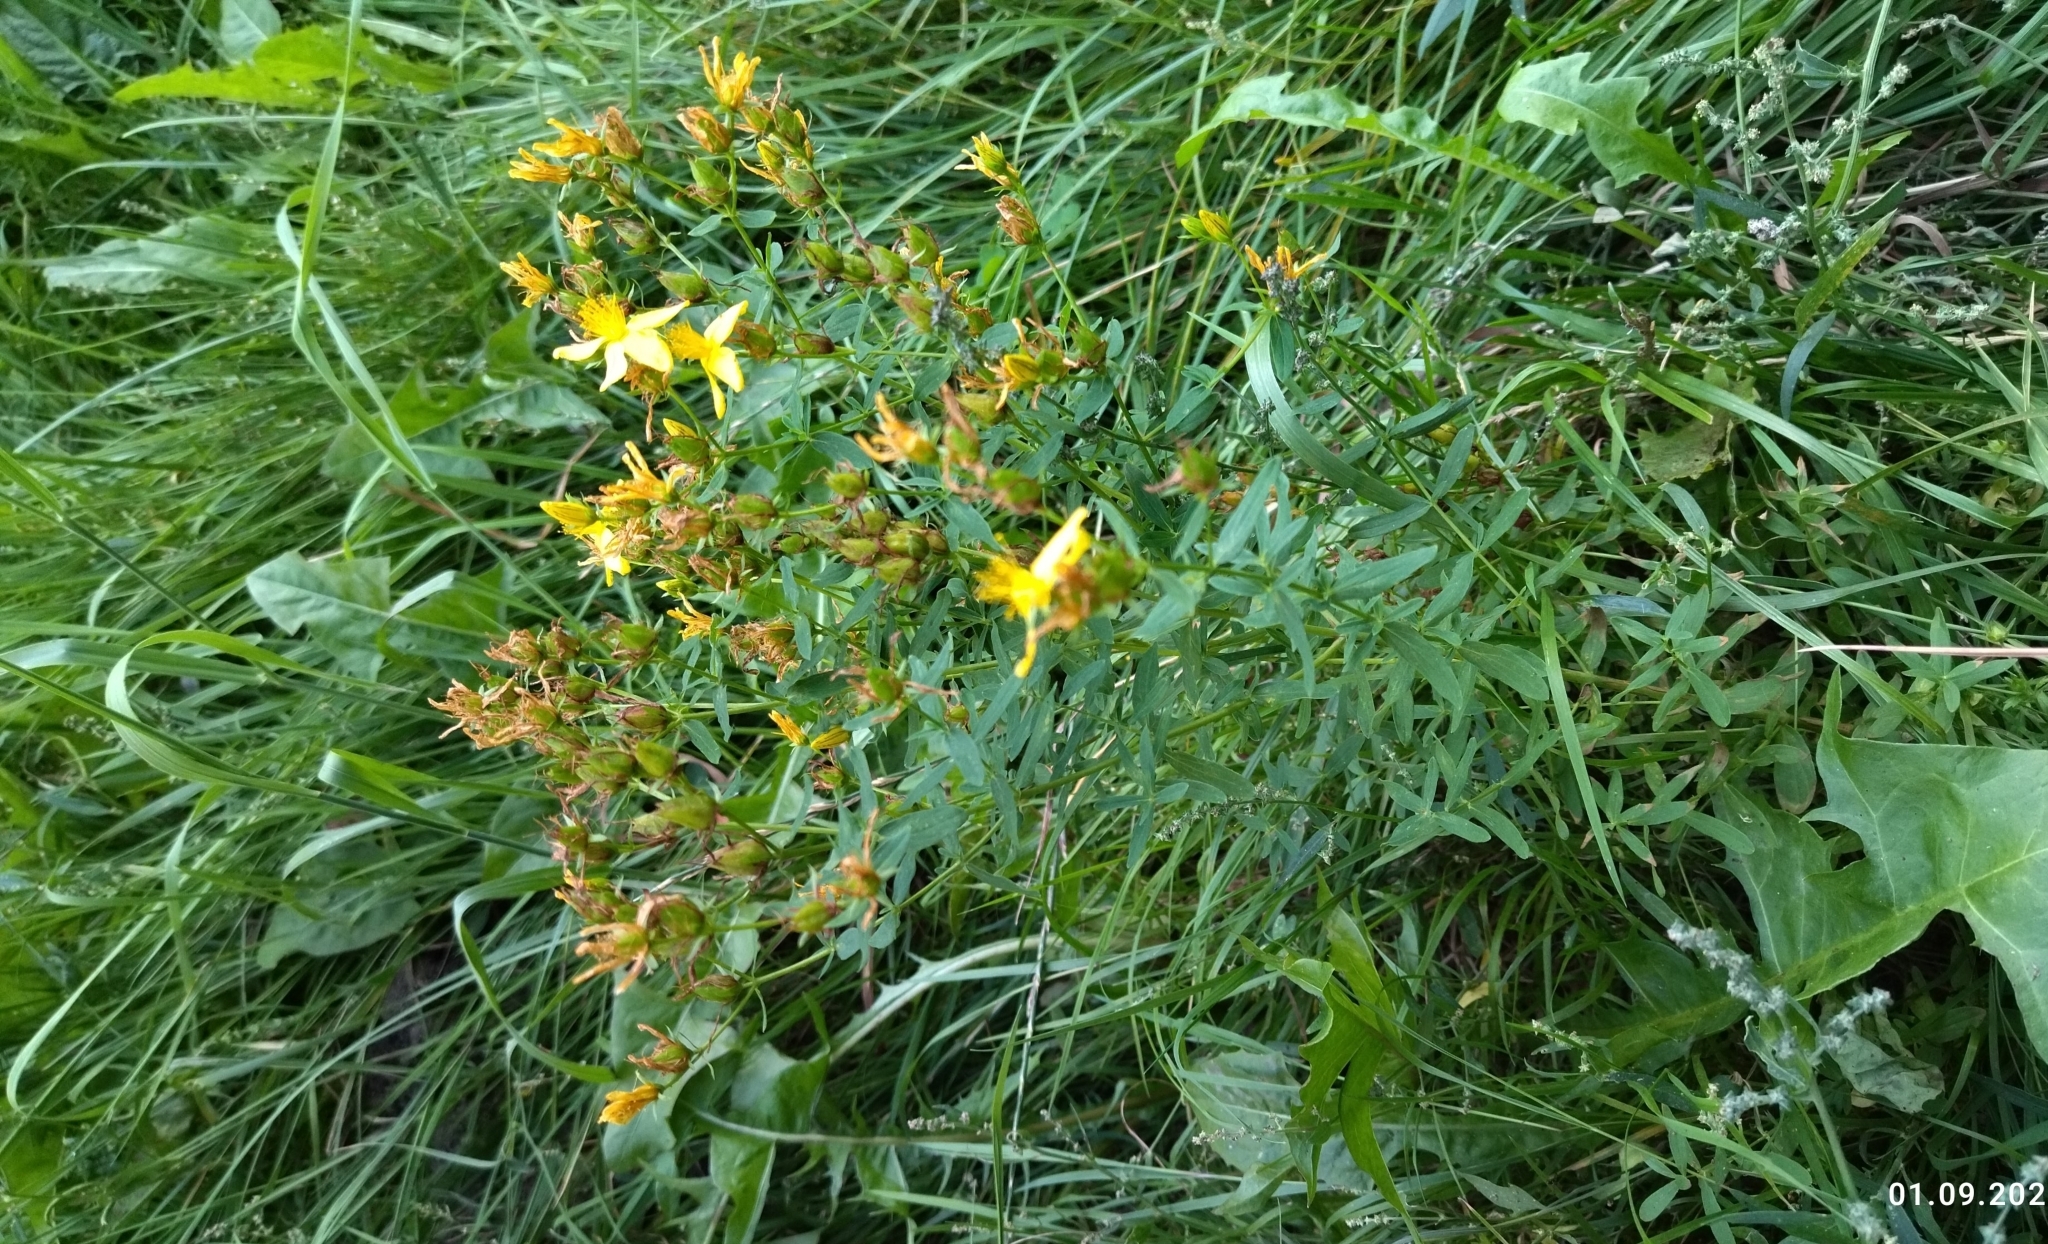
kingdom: Plantae
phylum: Tracheophyta
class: Magnoliopsida
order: Malpighiales
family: Hypericaceae
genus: Hypericum
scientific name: Hypericum perforatum
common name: Common st. johnswort
